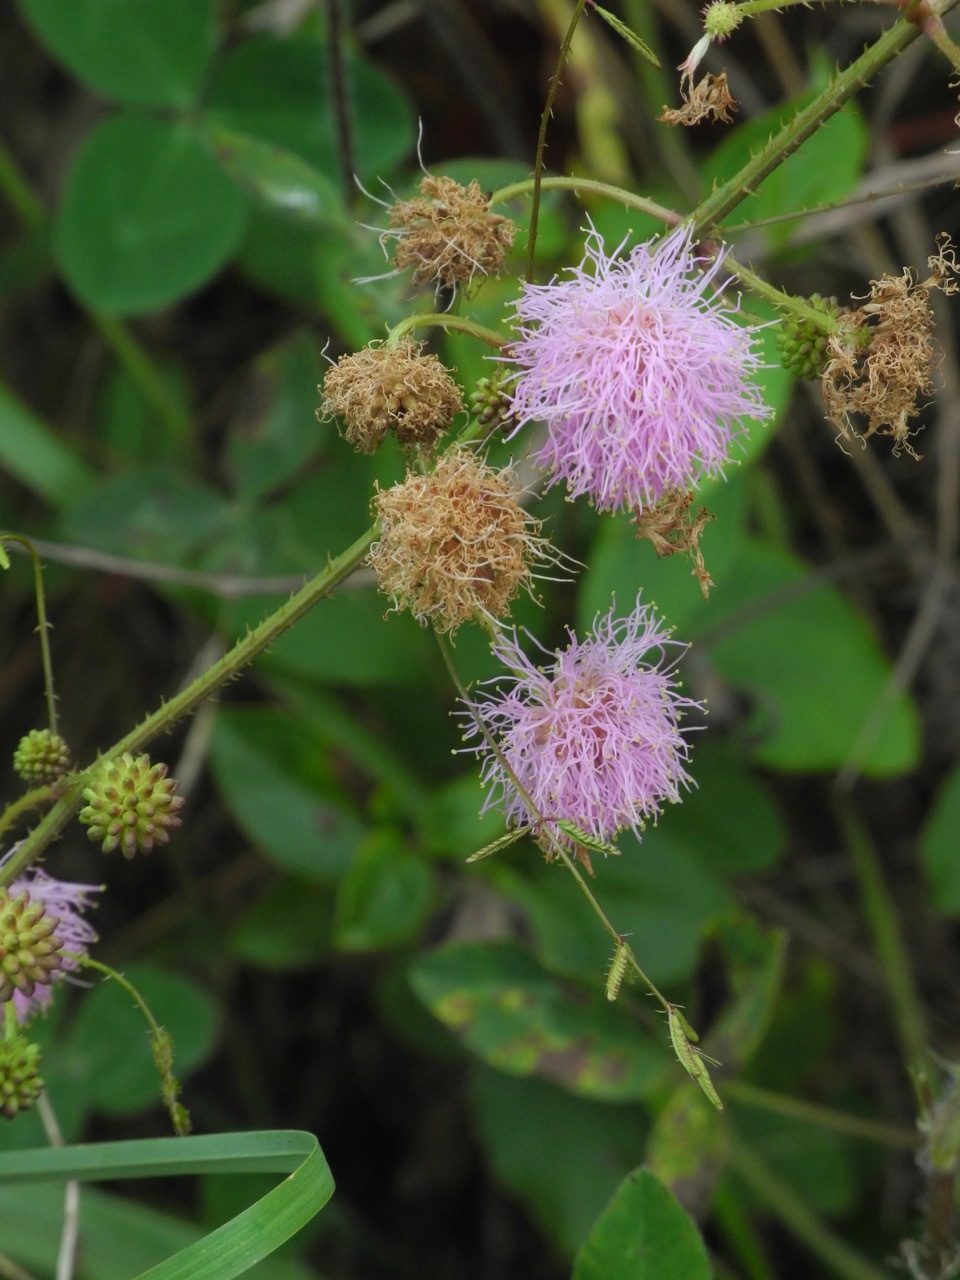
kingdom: Plantae
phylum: Tracheophyta
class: Magnoliopsida
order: Fabales
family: Fabaceae
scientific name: Fabaceae
